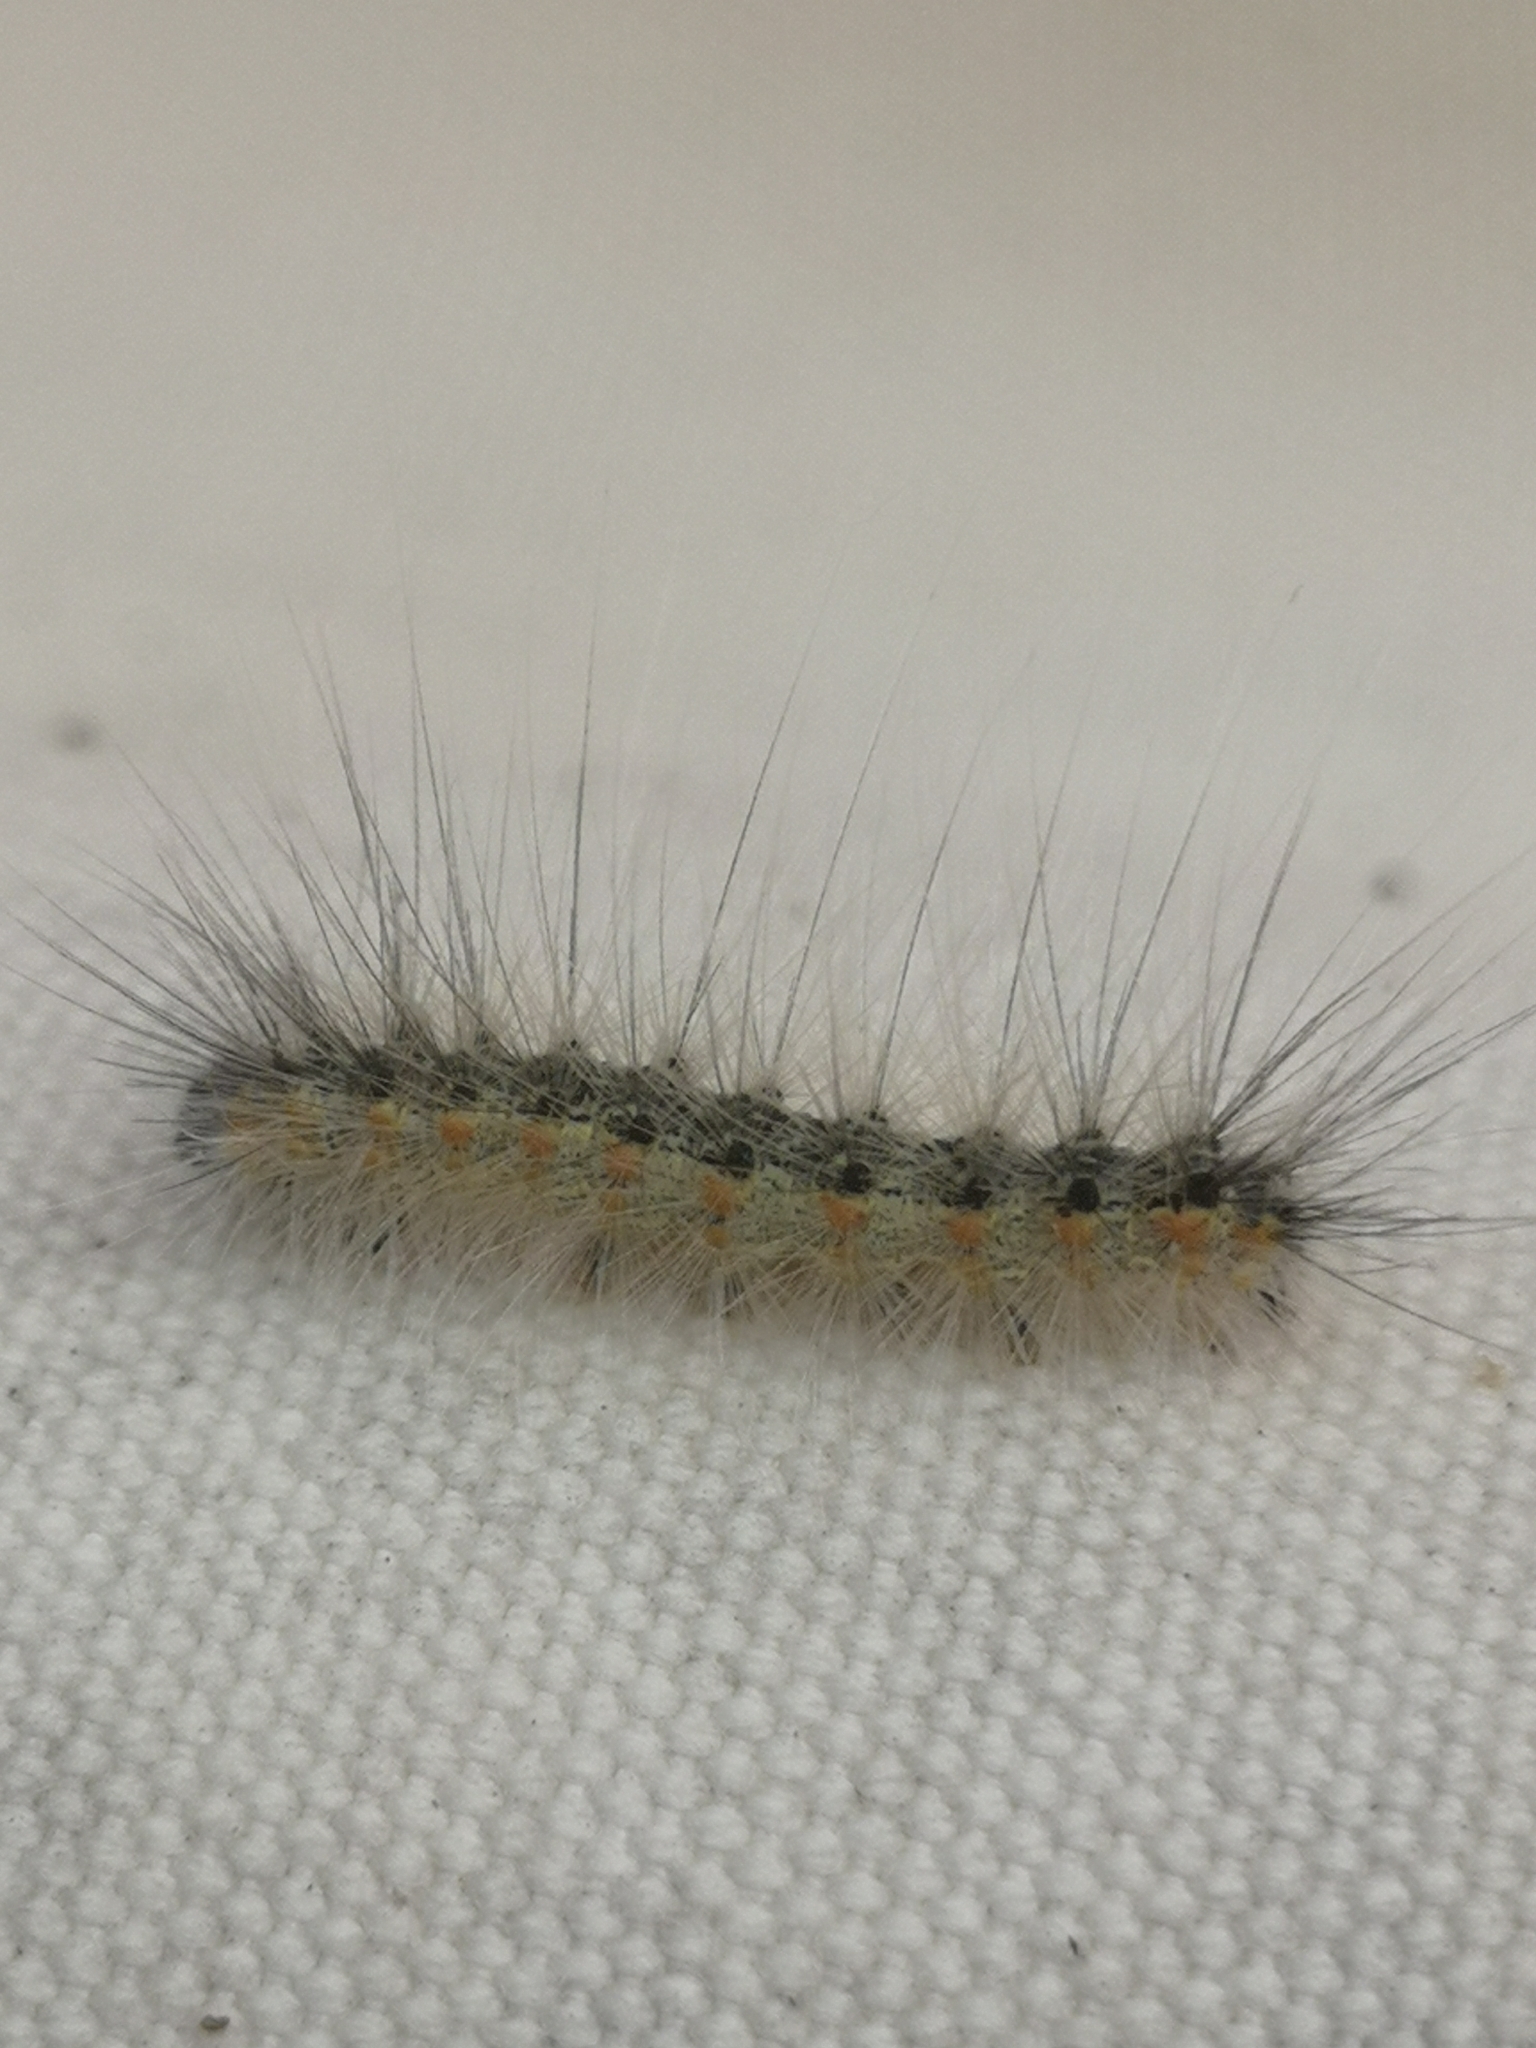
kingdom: Animalia
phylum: Arthropoda
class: Insecta
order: Lepidoptera
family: Erebidae
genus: Hyphantria
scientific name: Hyphantria cunea
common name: American white moth
